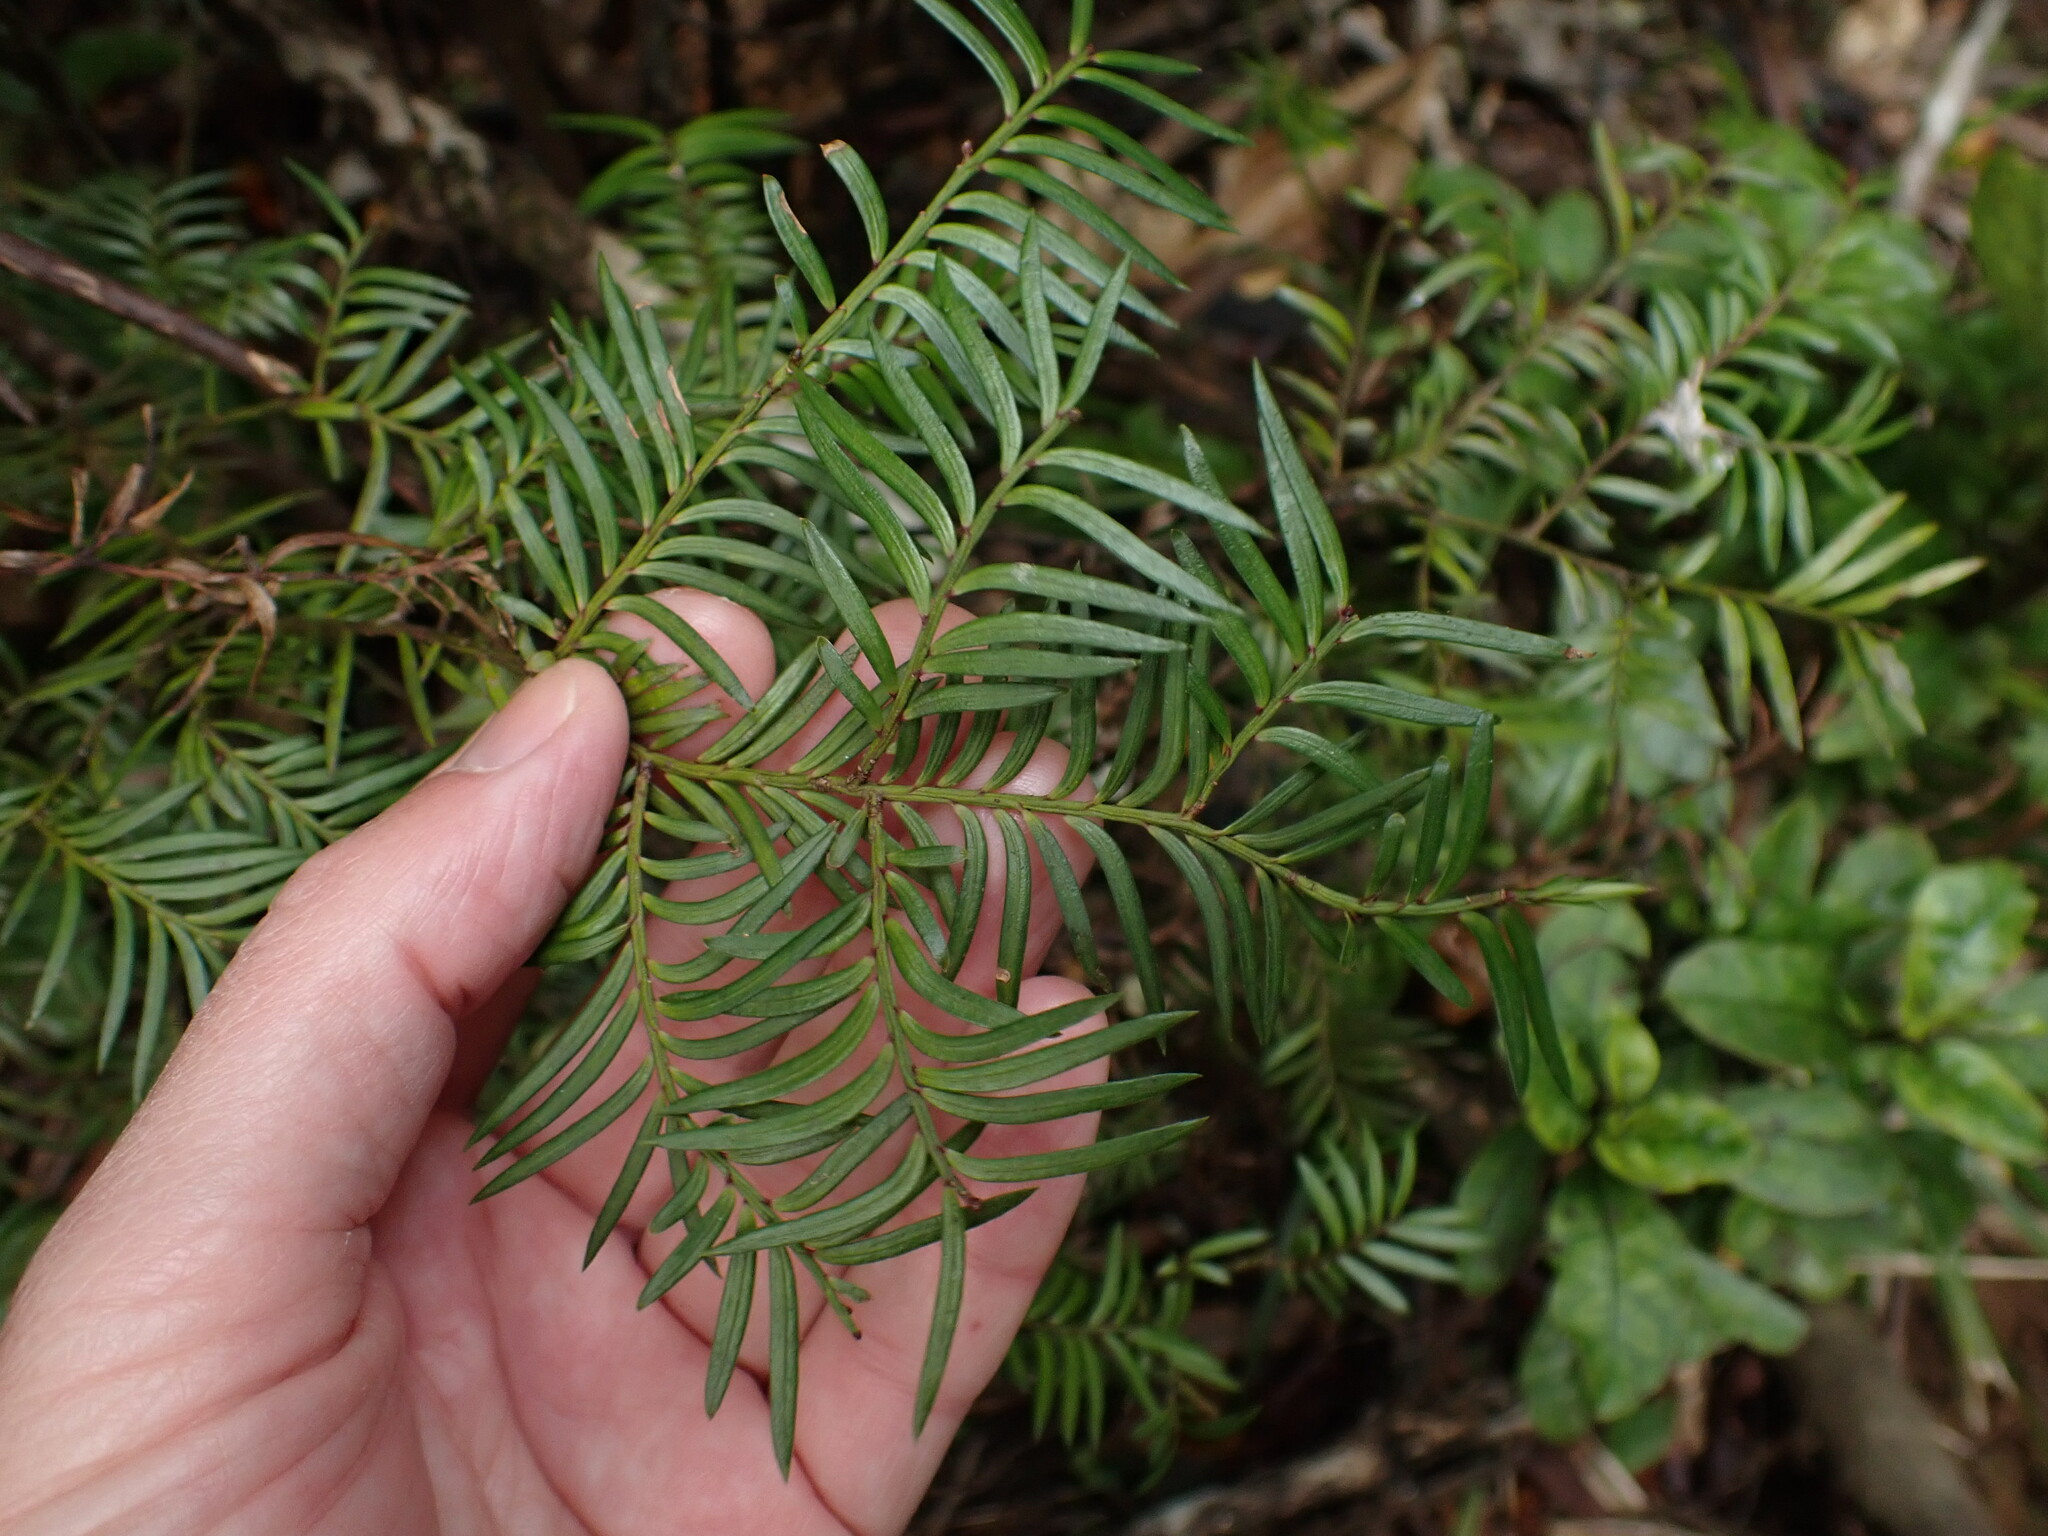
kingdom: Plantae
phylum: Tracheophyta
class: Pinopsida
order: Pinales
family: Podocarpaceae
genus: Prumnopitys
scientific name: Prumnopitys ferruginea
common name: Brown pine
